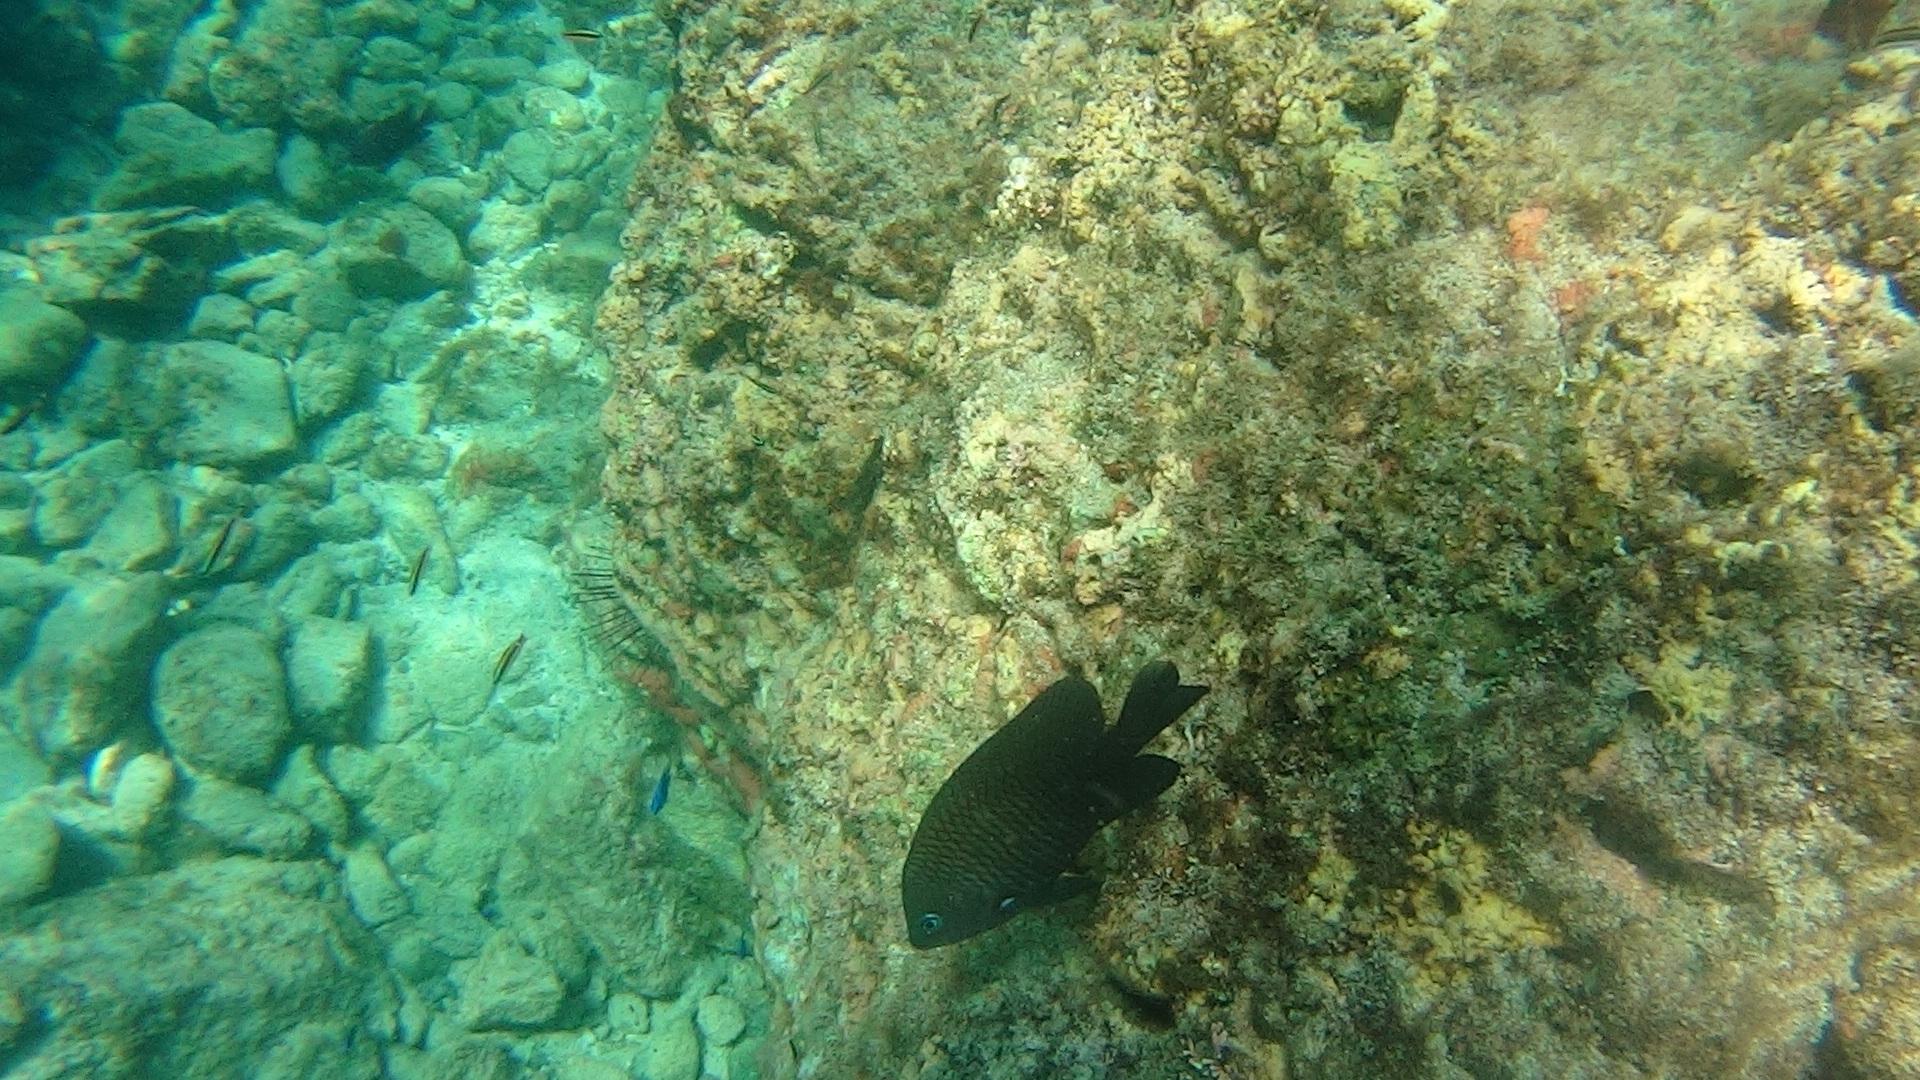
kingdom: Animalia
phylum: Chordata
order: Perciformes
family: Pomacentridae
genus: Stegastes
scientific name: Stegastes acapulcoensis
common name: Acapulco damselfish
